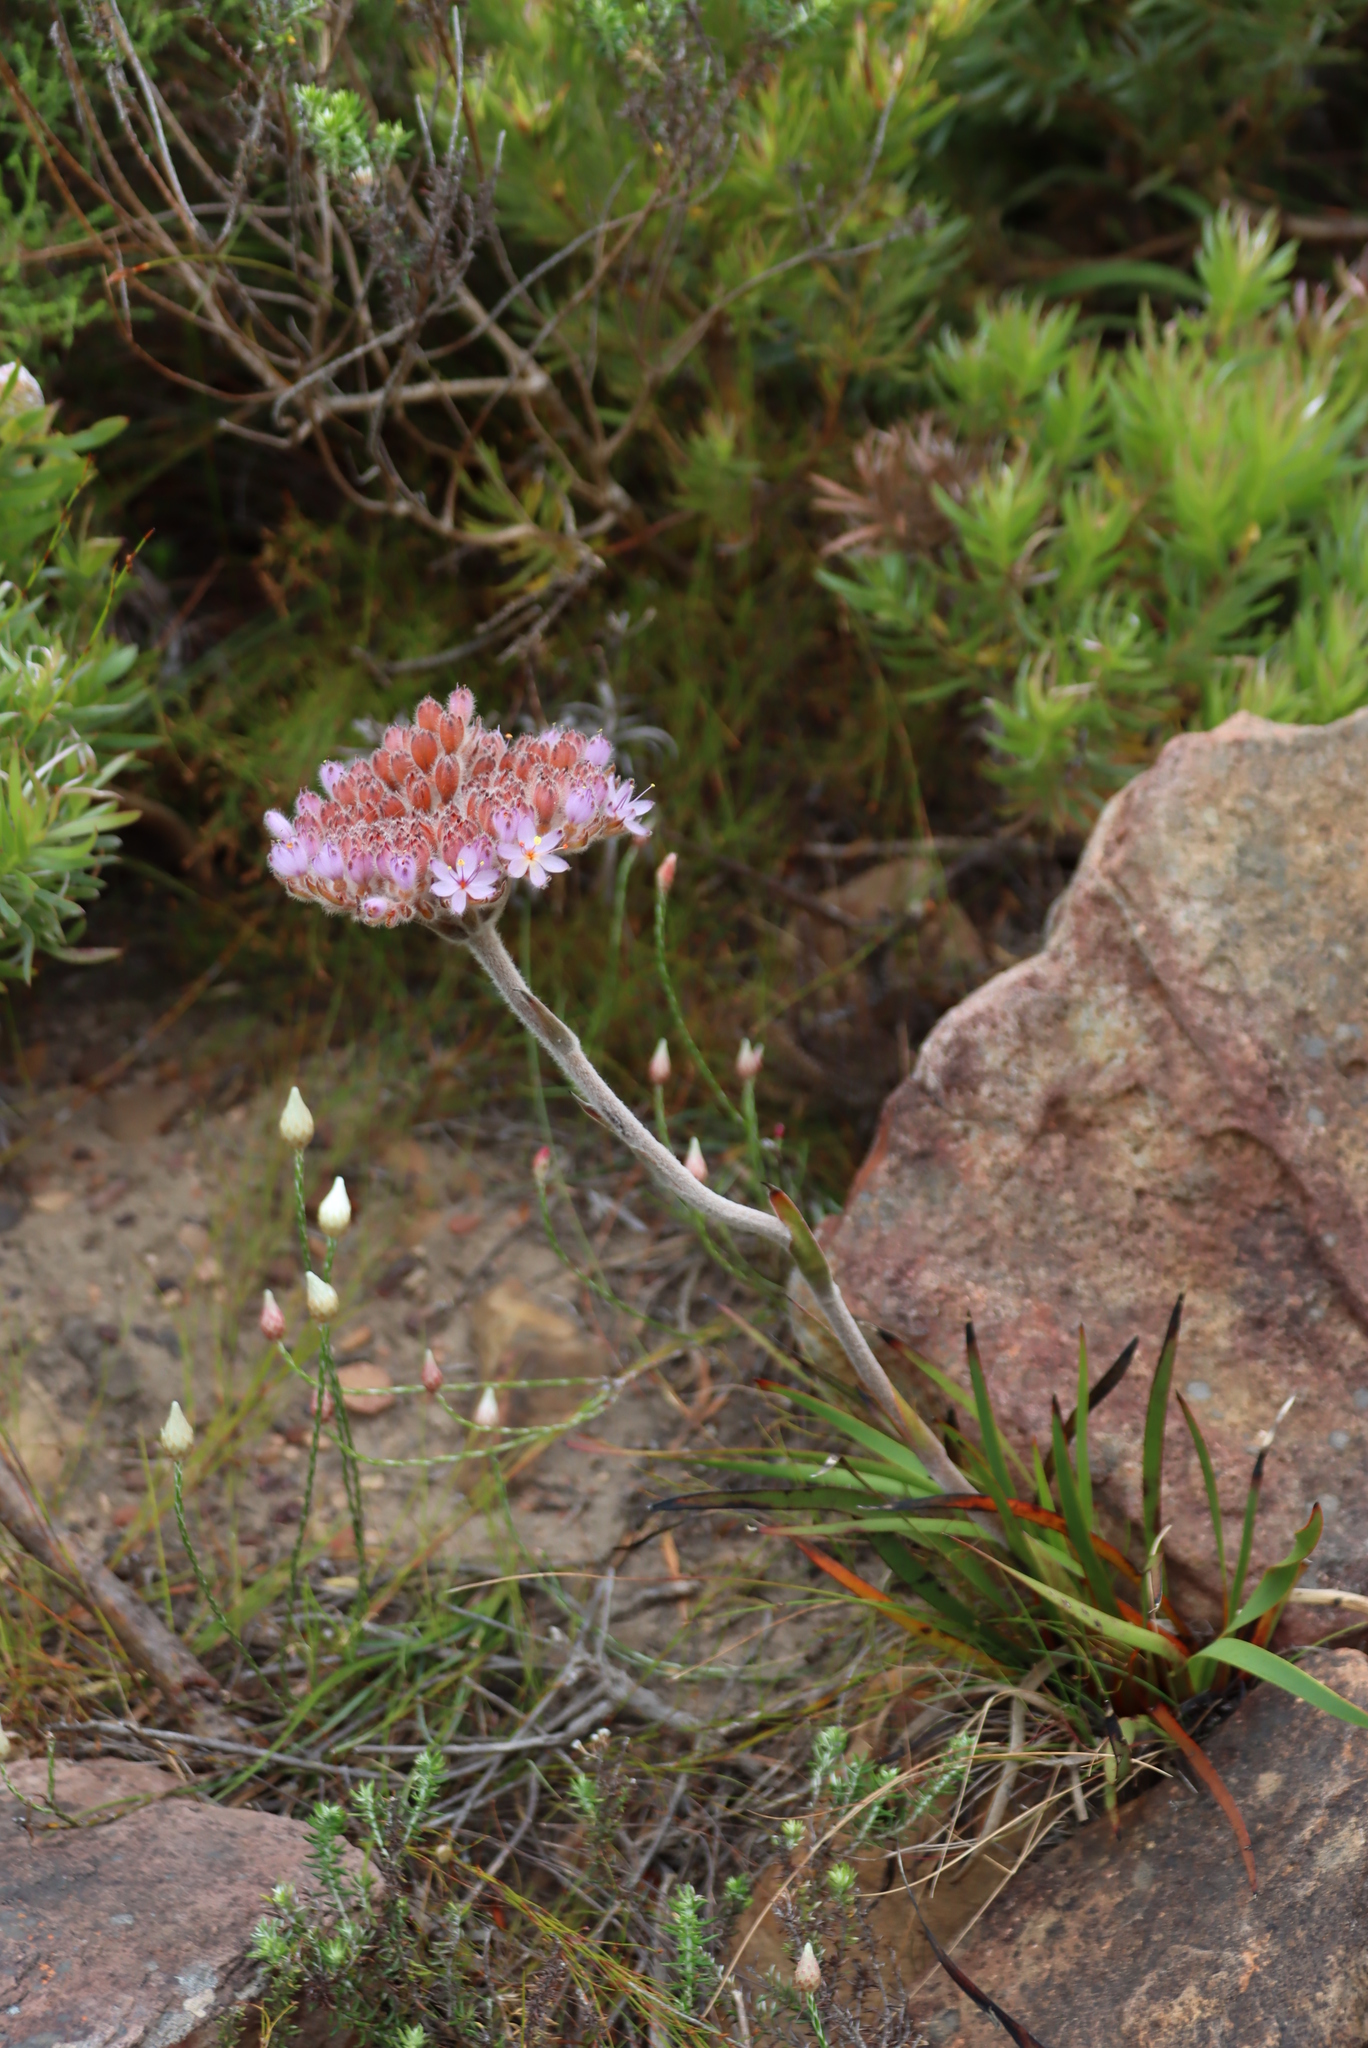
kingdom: Plantae
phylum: Tracheophyta
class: Liliopsida
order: Commelinales
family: Haemodoraceae
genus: Dilatris
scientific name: Dilatris pillansii
